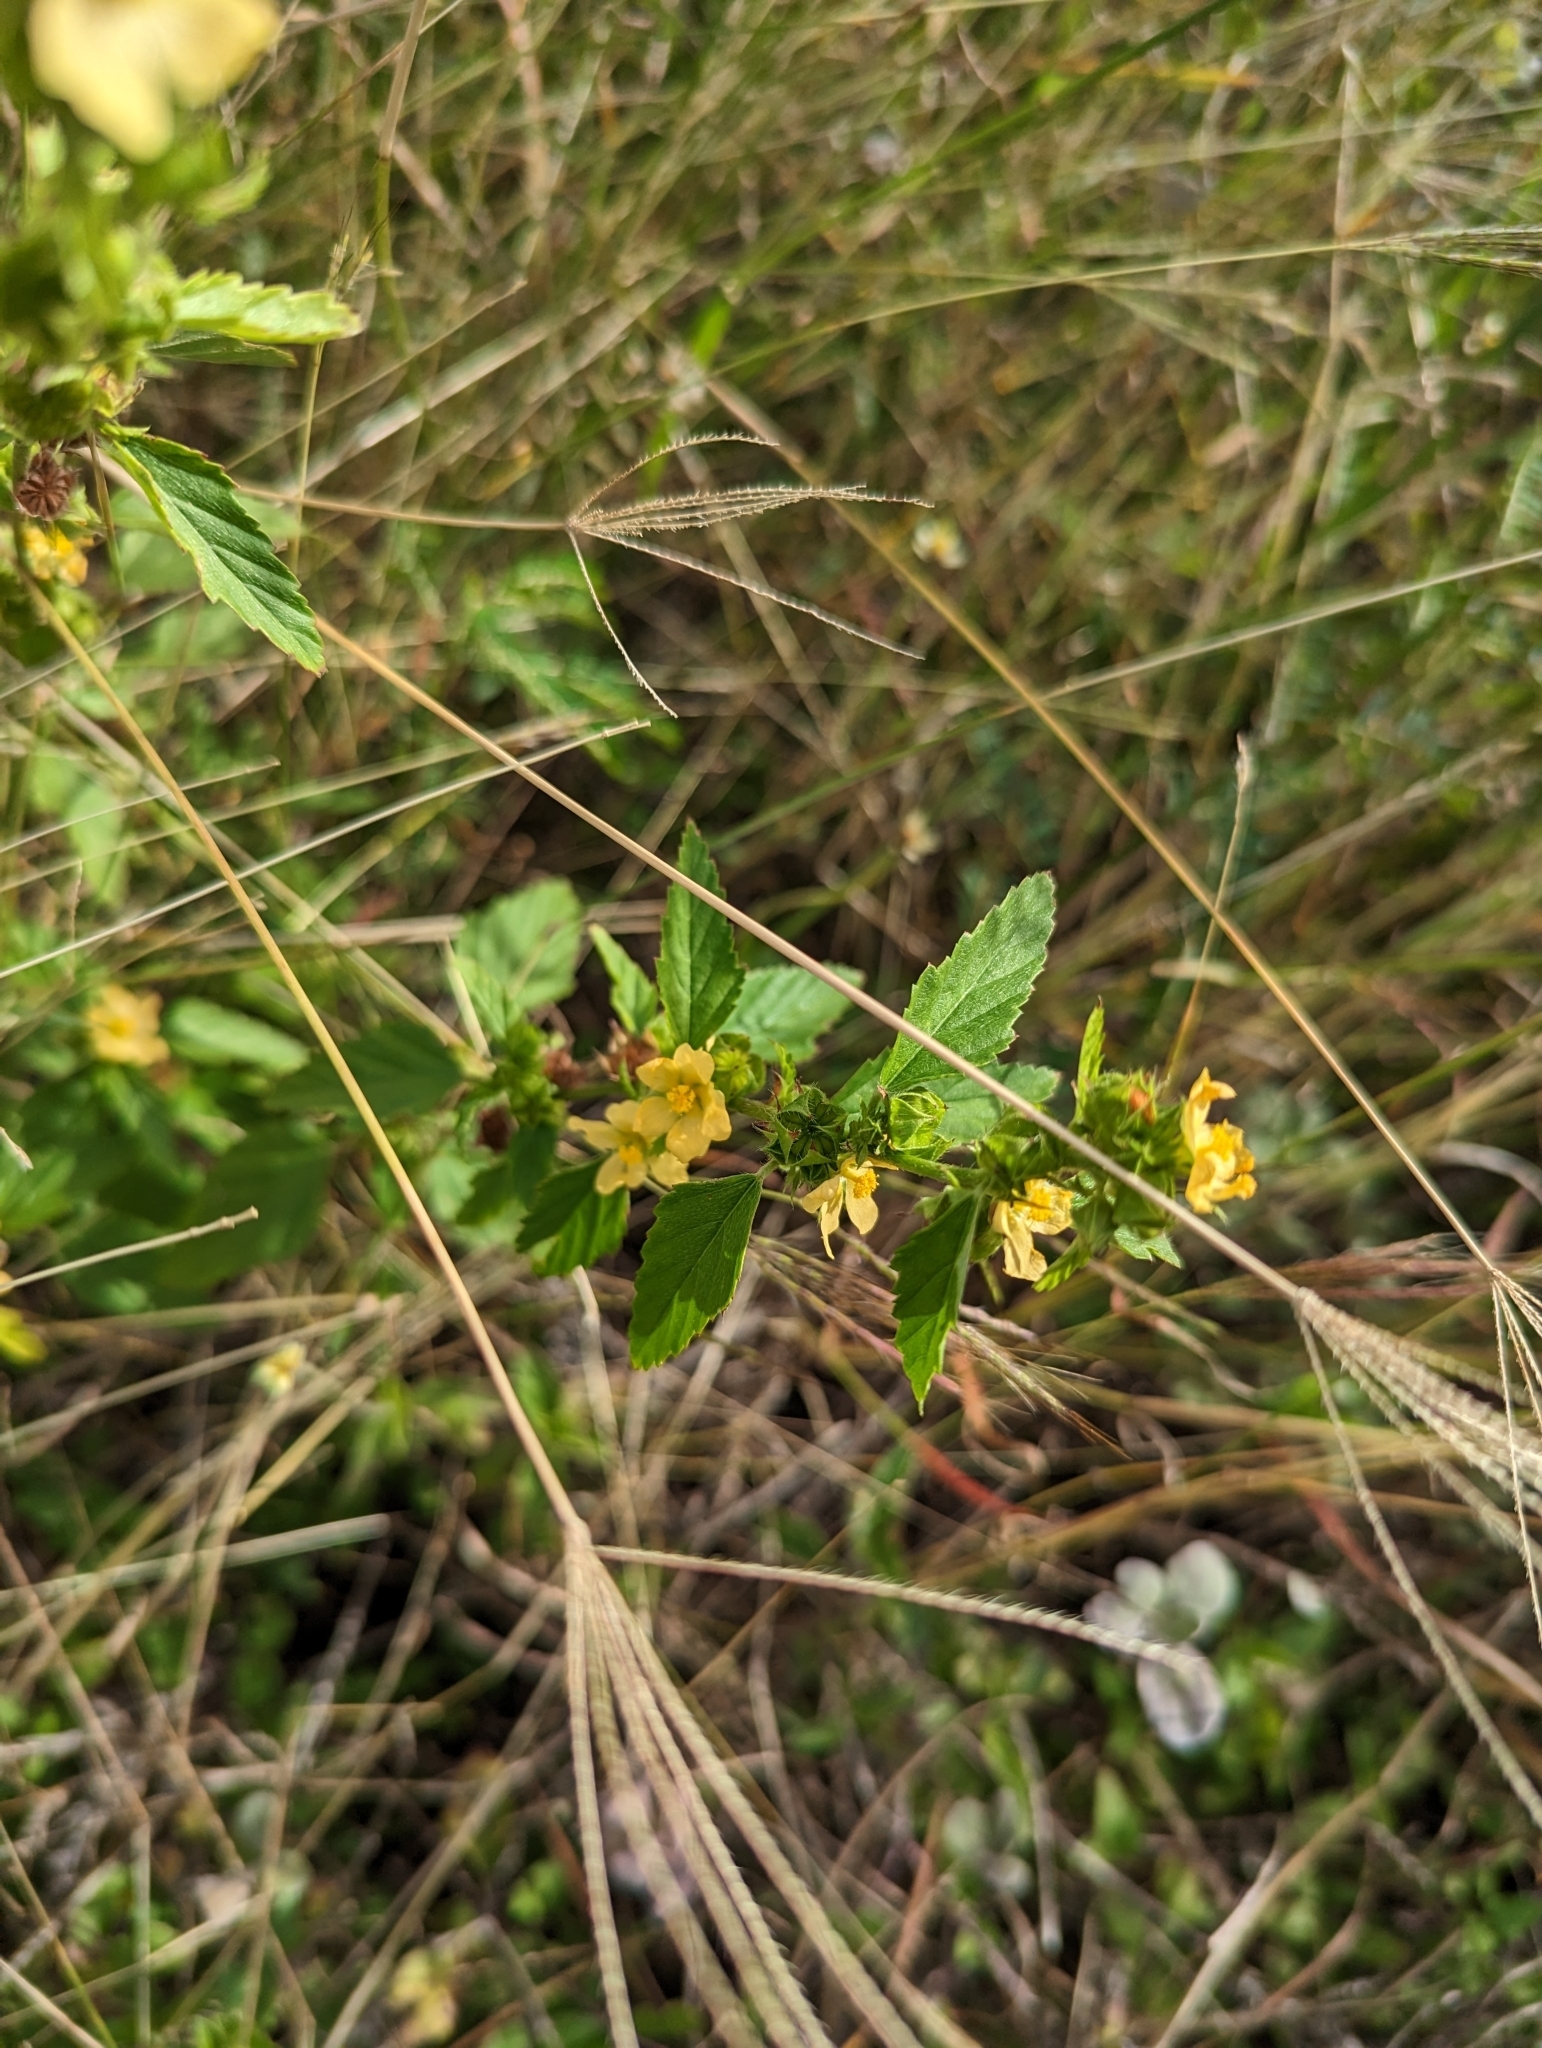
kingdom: Plantae
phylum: Tracheophyta
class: Magnoliopsida
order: Malvales
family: Malvaceae
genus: Malvastrum
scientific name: Malvastrum coromandelianum
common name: Threelobe false mallow
